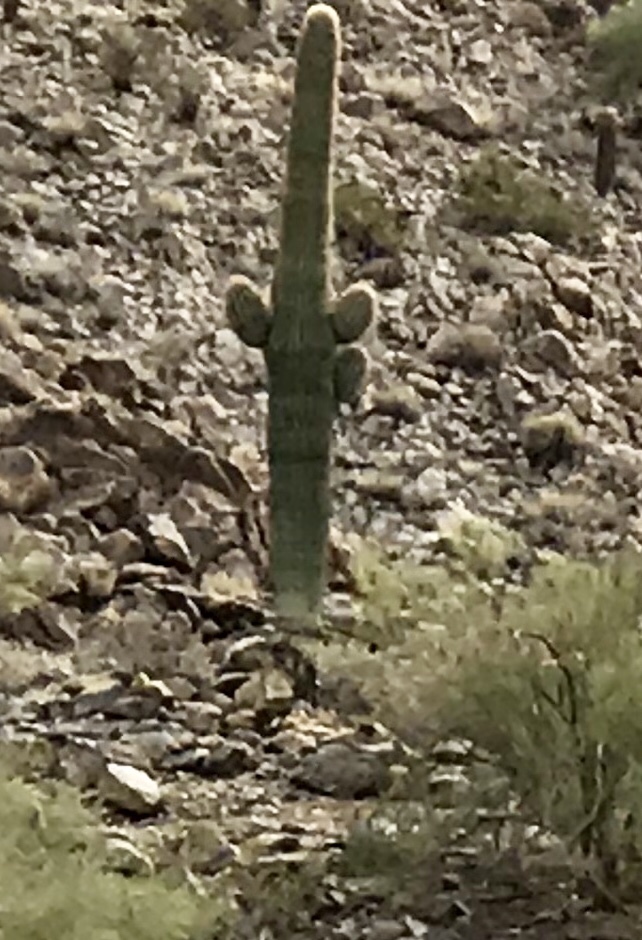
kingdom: Plantae
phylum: Tracheophyta
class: Magnoliopsida
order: Caryophyllales
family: Cactaceae
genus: Carnegiea
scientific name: Carnegiea gigantea
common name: Saguaro
